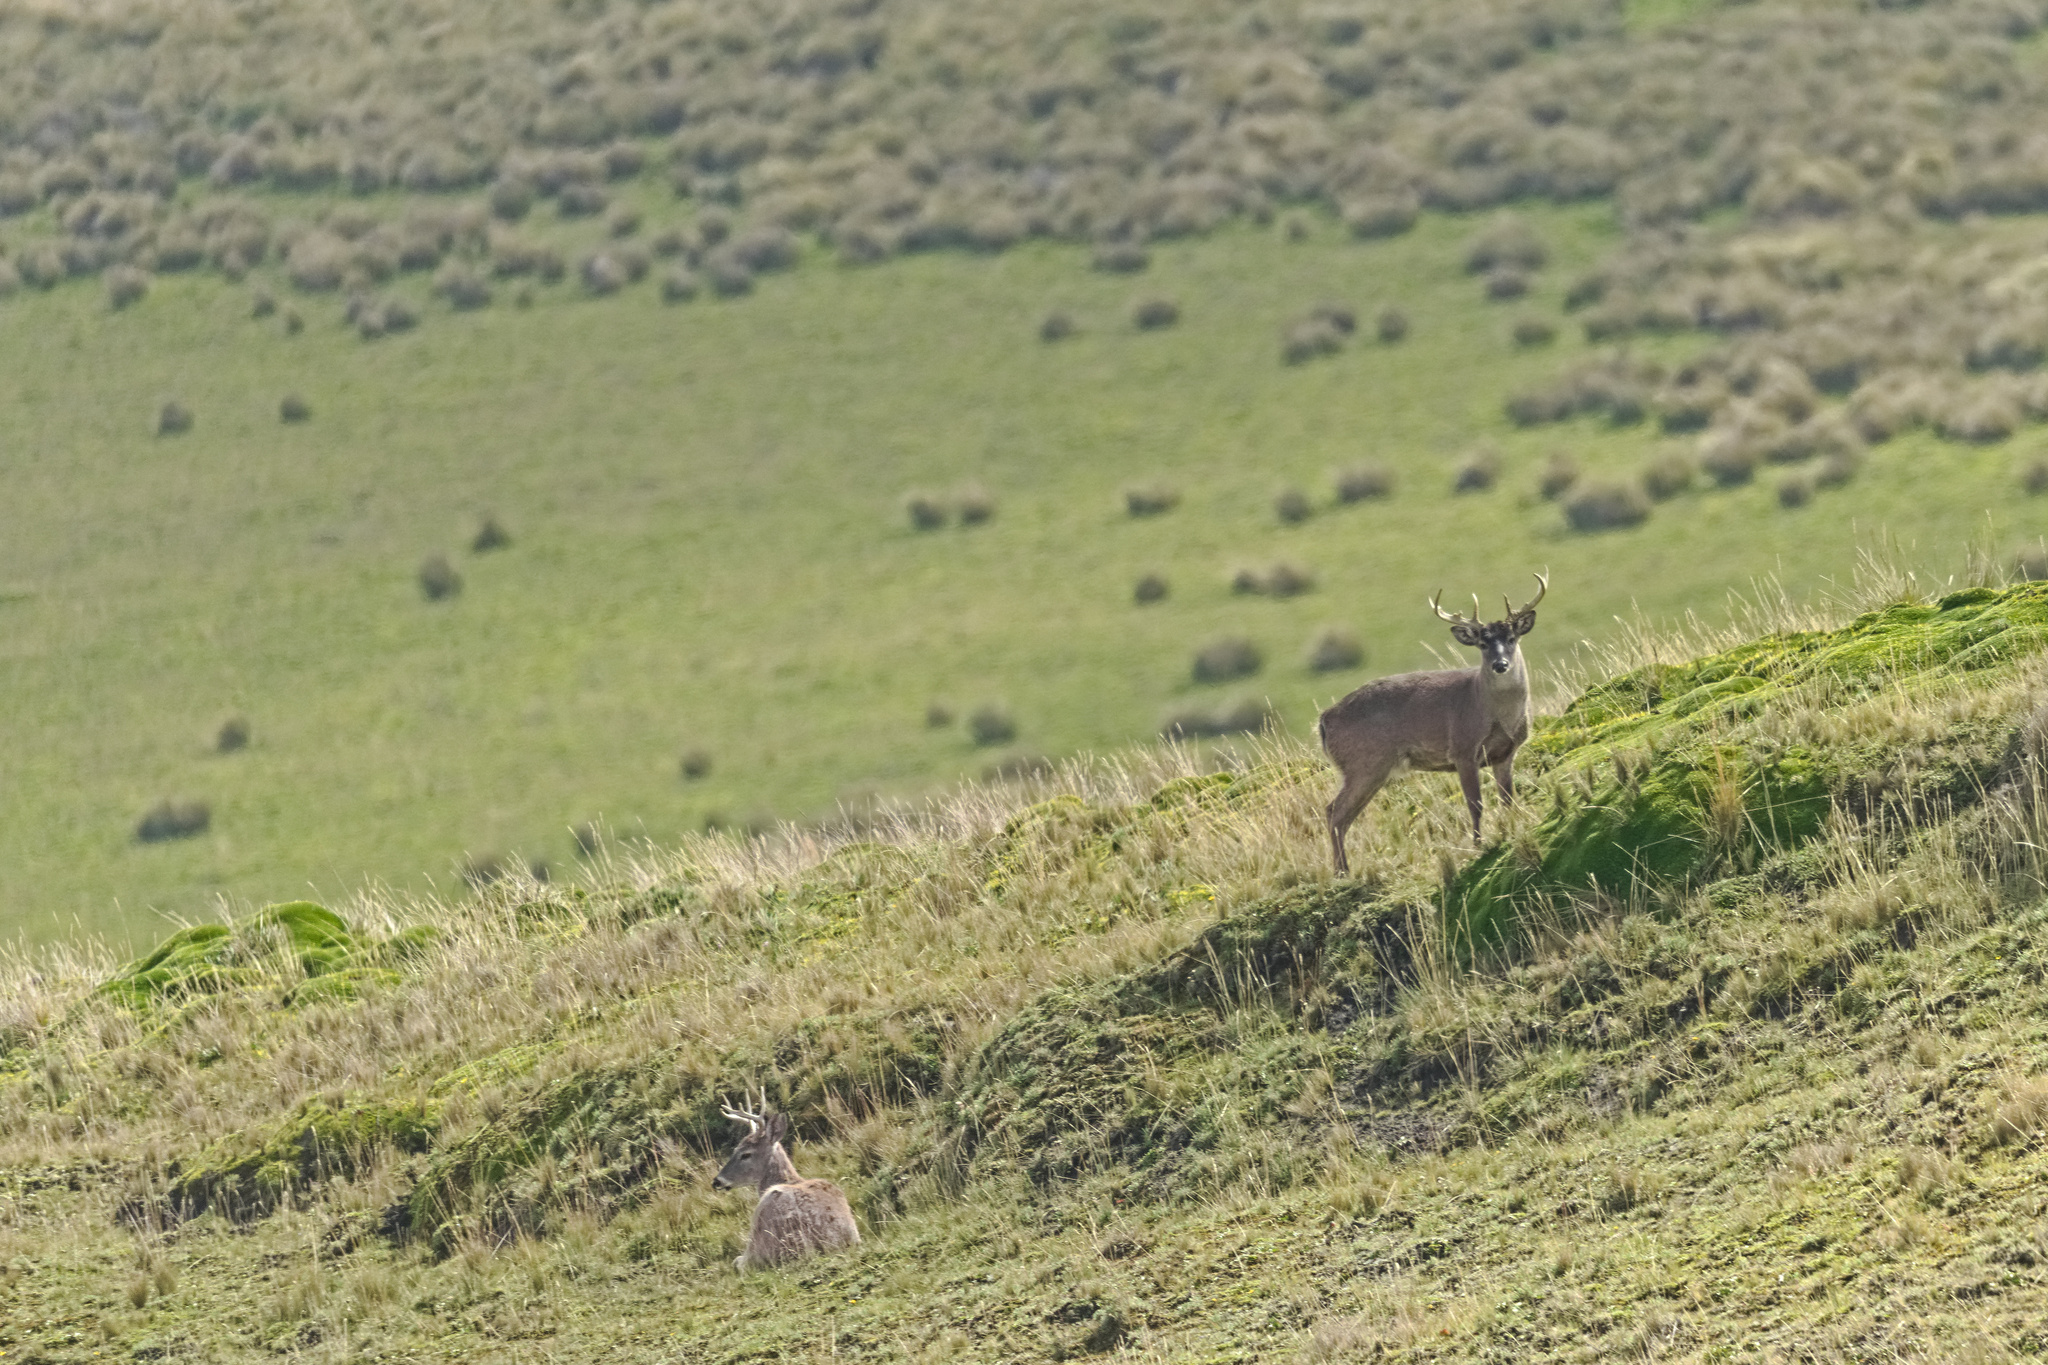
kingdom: Animalia
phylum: Chordata
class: Mammalia
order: Artiodactyla
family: Cervidae
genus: Odocoileus
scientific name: Odocoileus virginianus
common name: White-tailed deer
